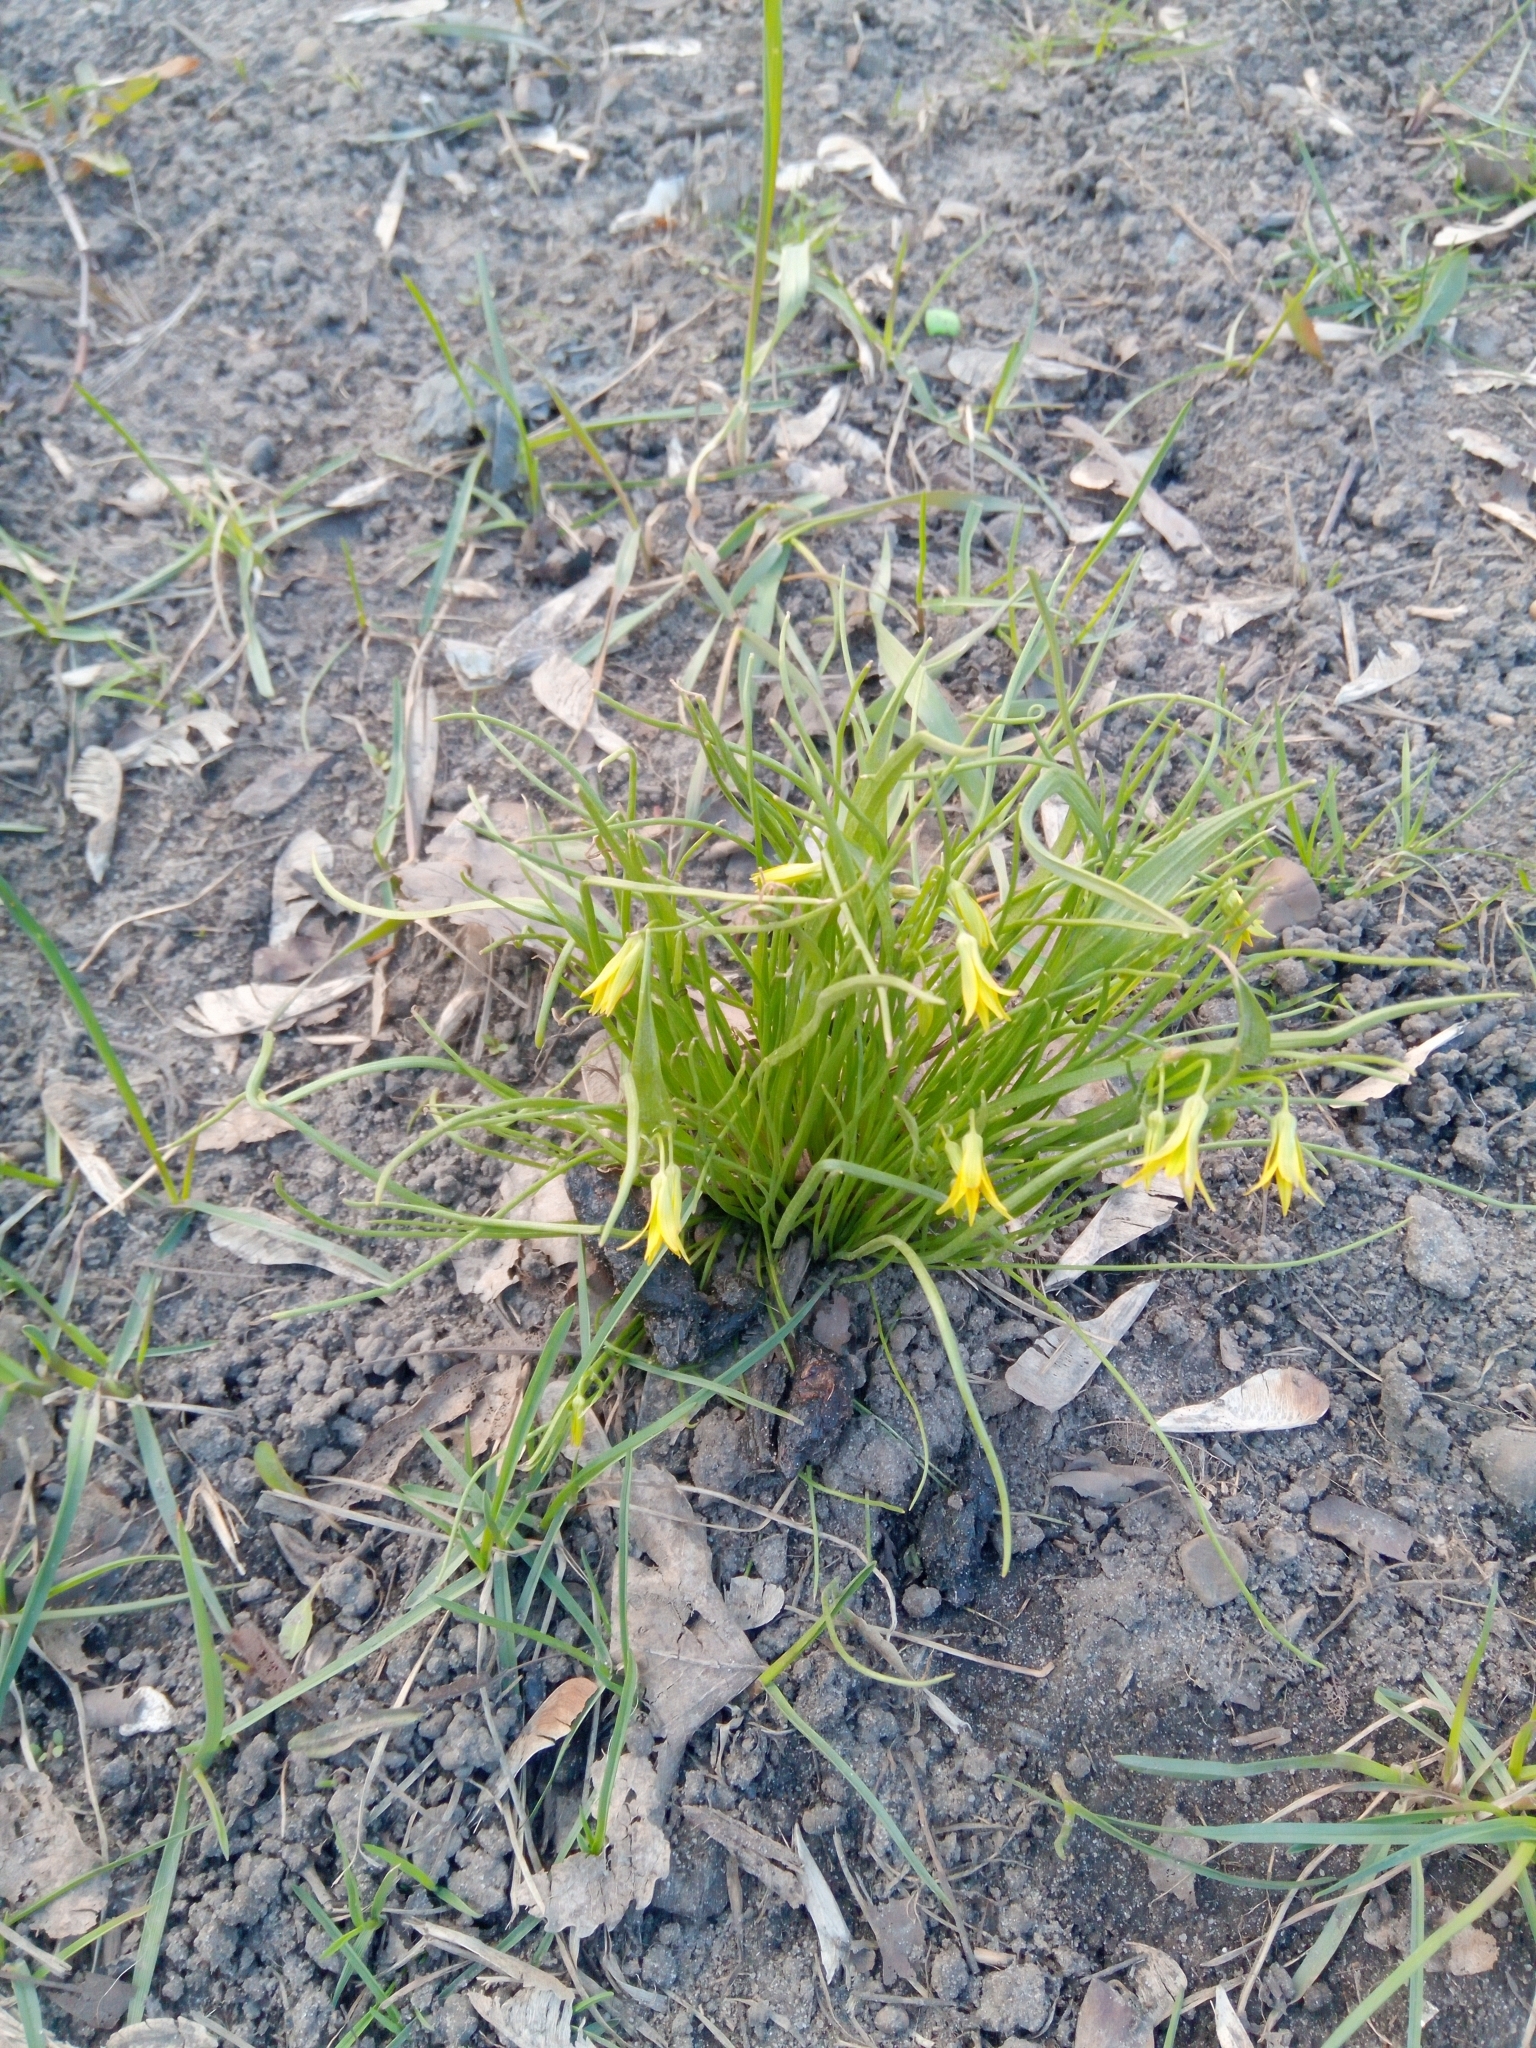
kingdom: Plantae
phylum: Tracheophyta
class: Liliopsida
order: Liliales
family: Liliaceae
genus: Gagea
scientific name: Gagea minima
